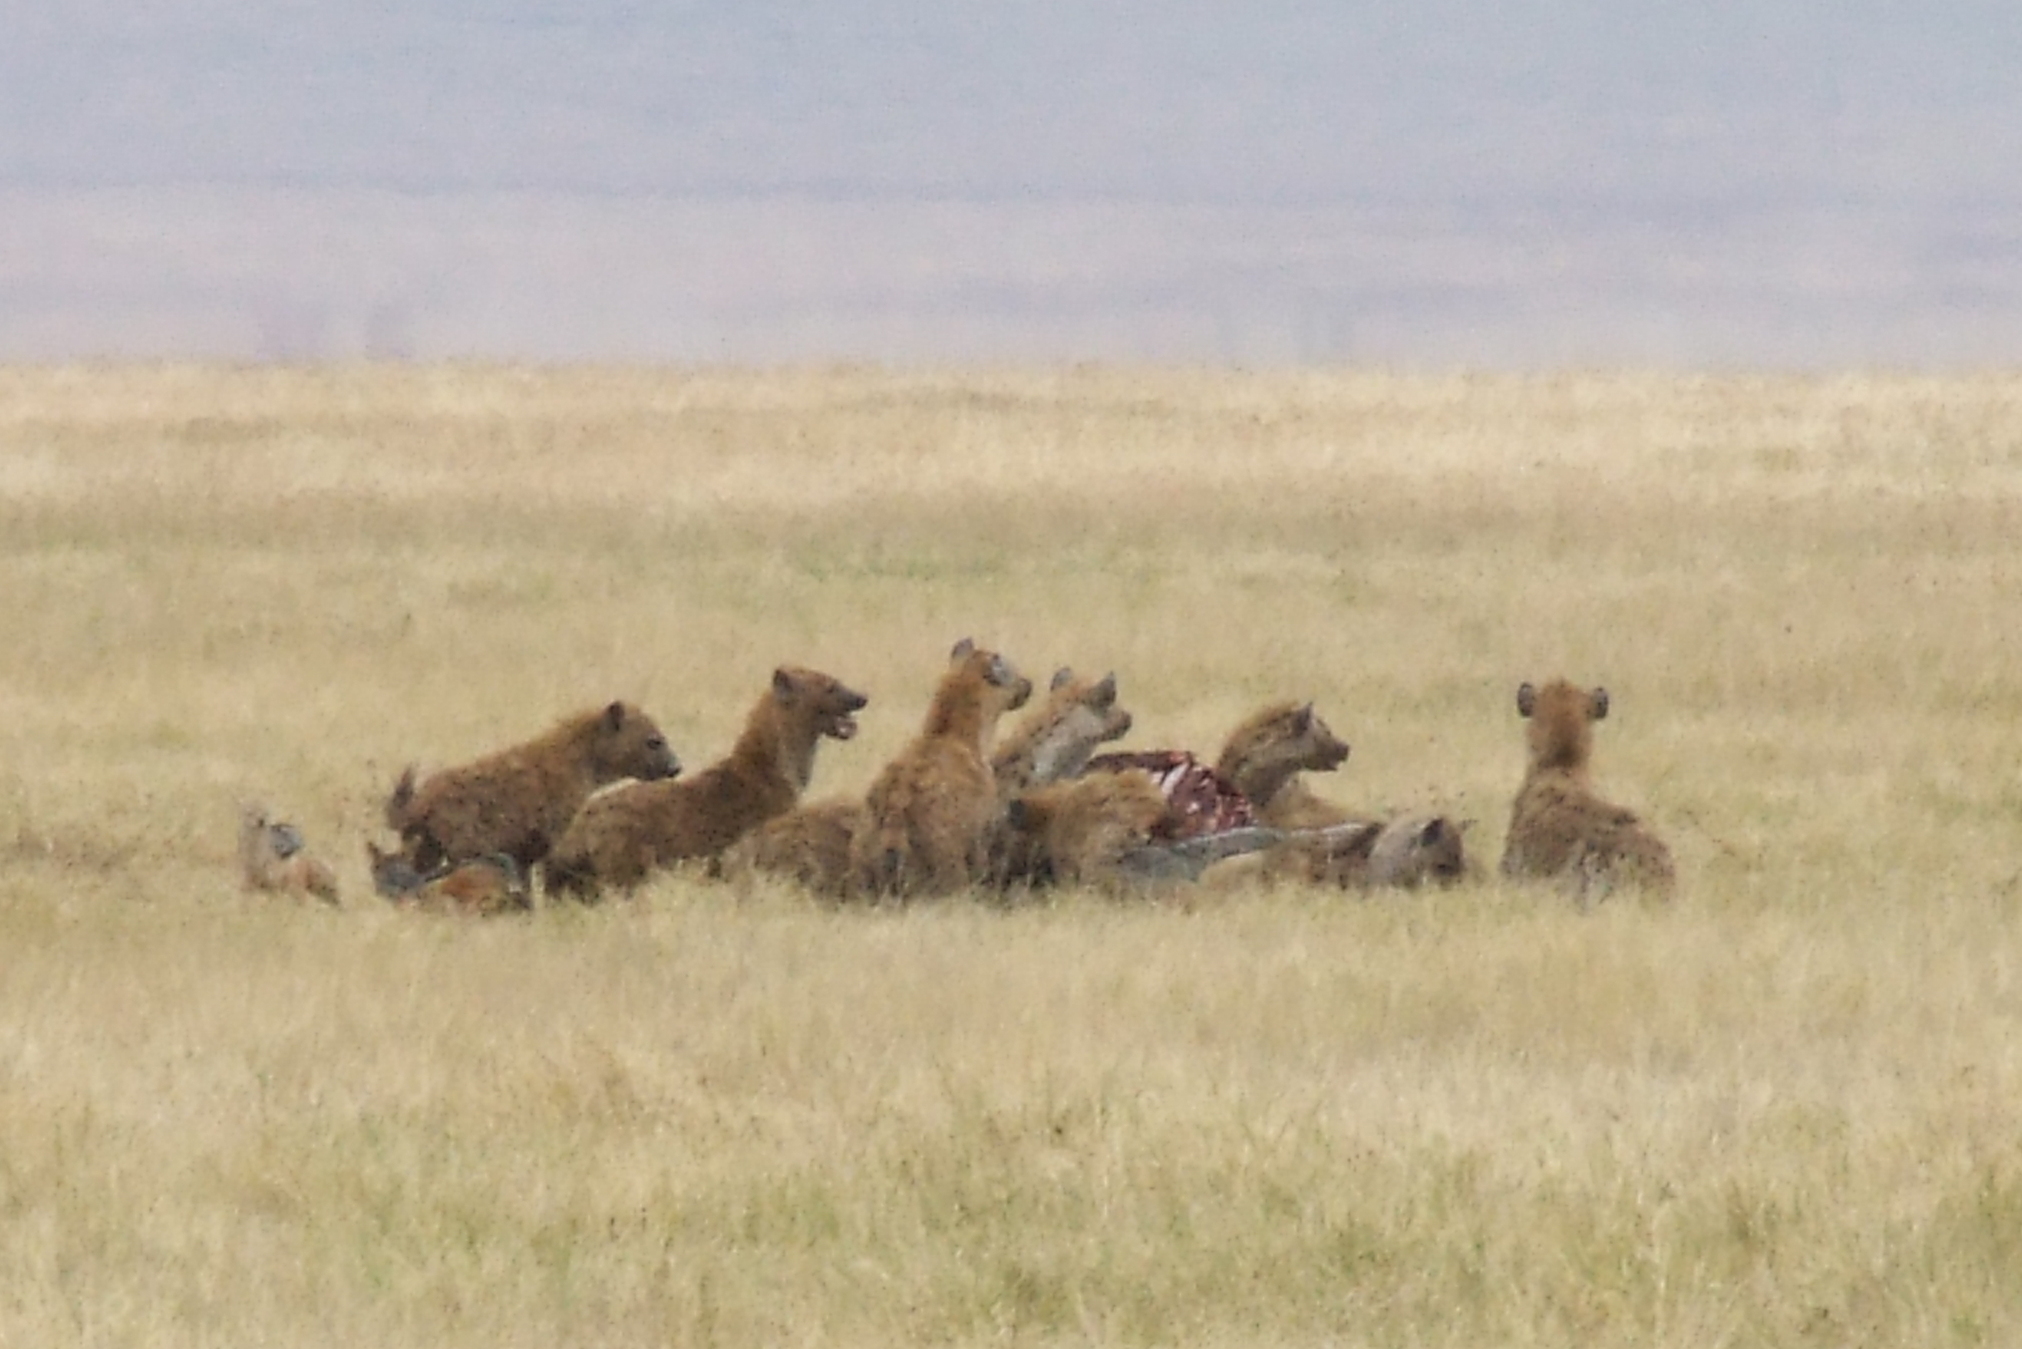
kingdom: Animalia
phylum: Chordata
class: Mammalia
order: Carnivora
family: Hyaenidae
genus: Crocuta
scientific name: Crocuta crocuta
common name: Spotted hyaena
